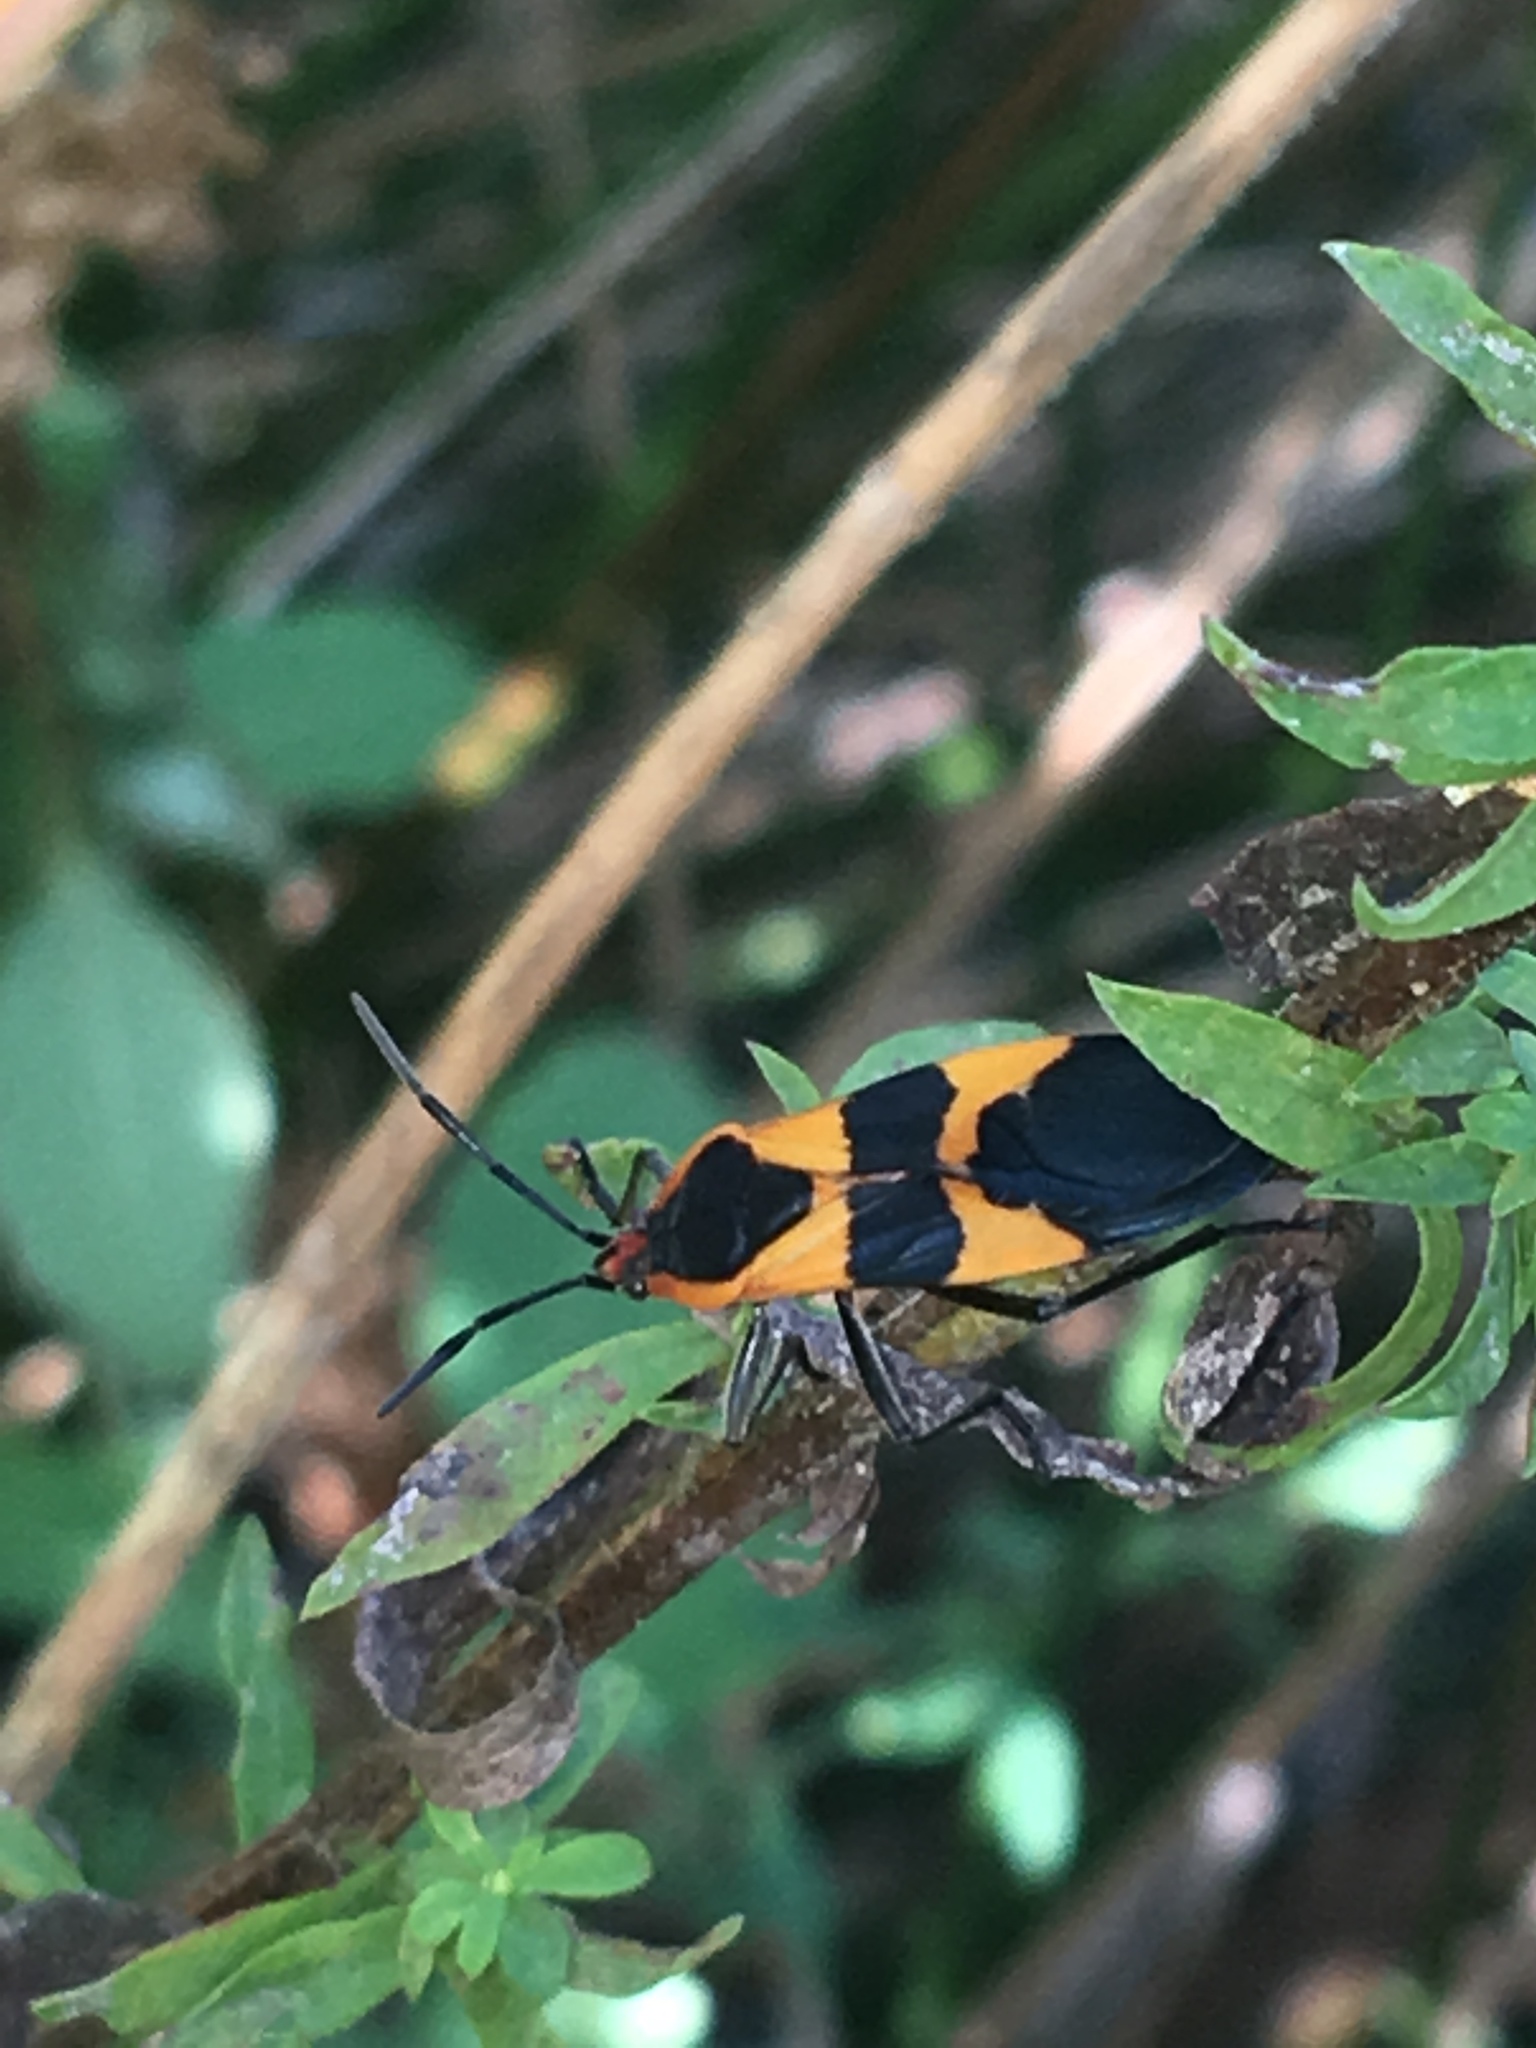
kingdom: Animalia
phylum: Arthropoda
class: Insecta
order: Hemiptera
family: Lygaeidae
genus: Oncopeltus
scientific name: Oncopeltus fasciatus
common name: Large milkweed bug
